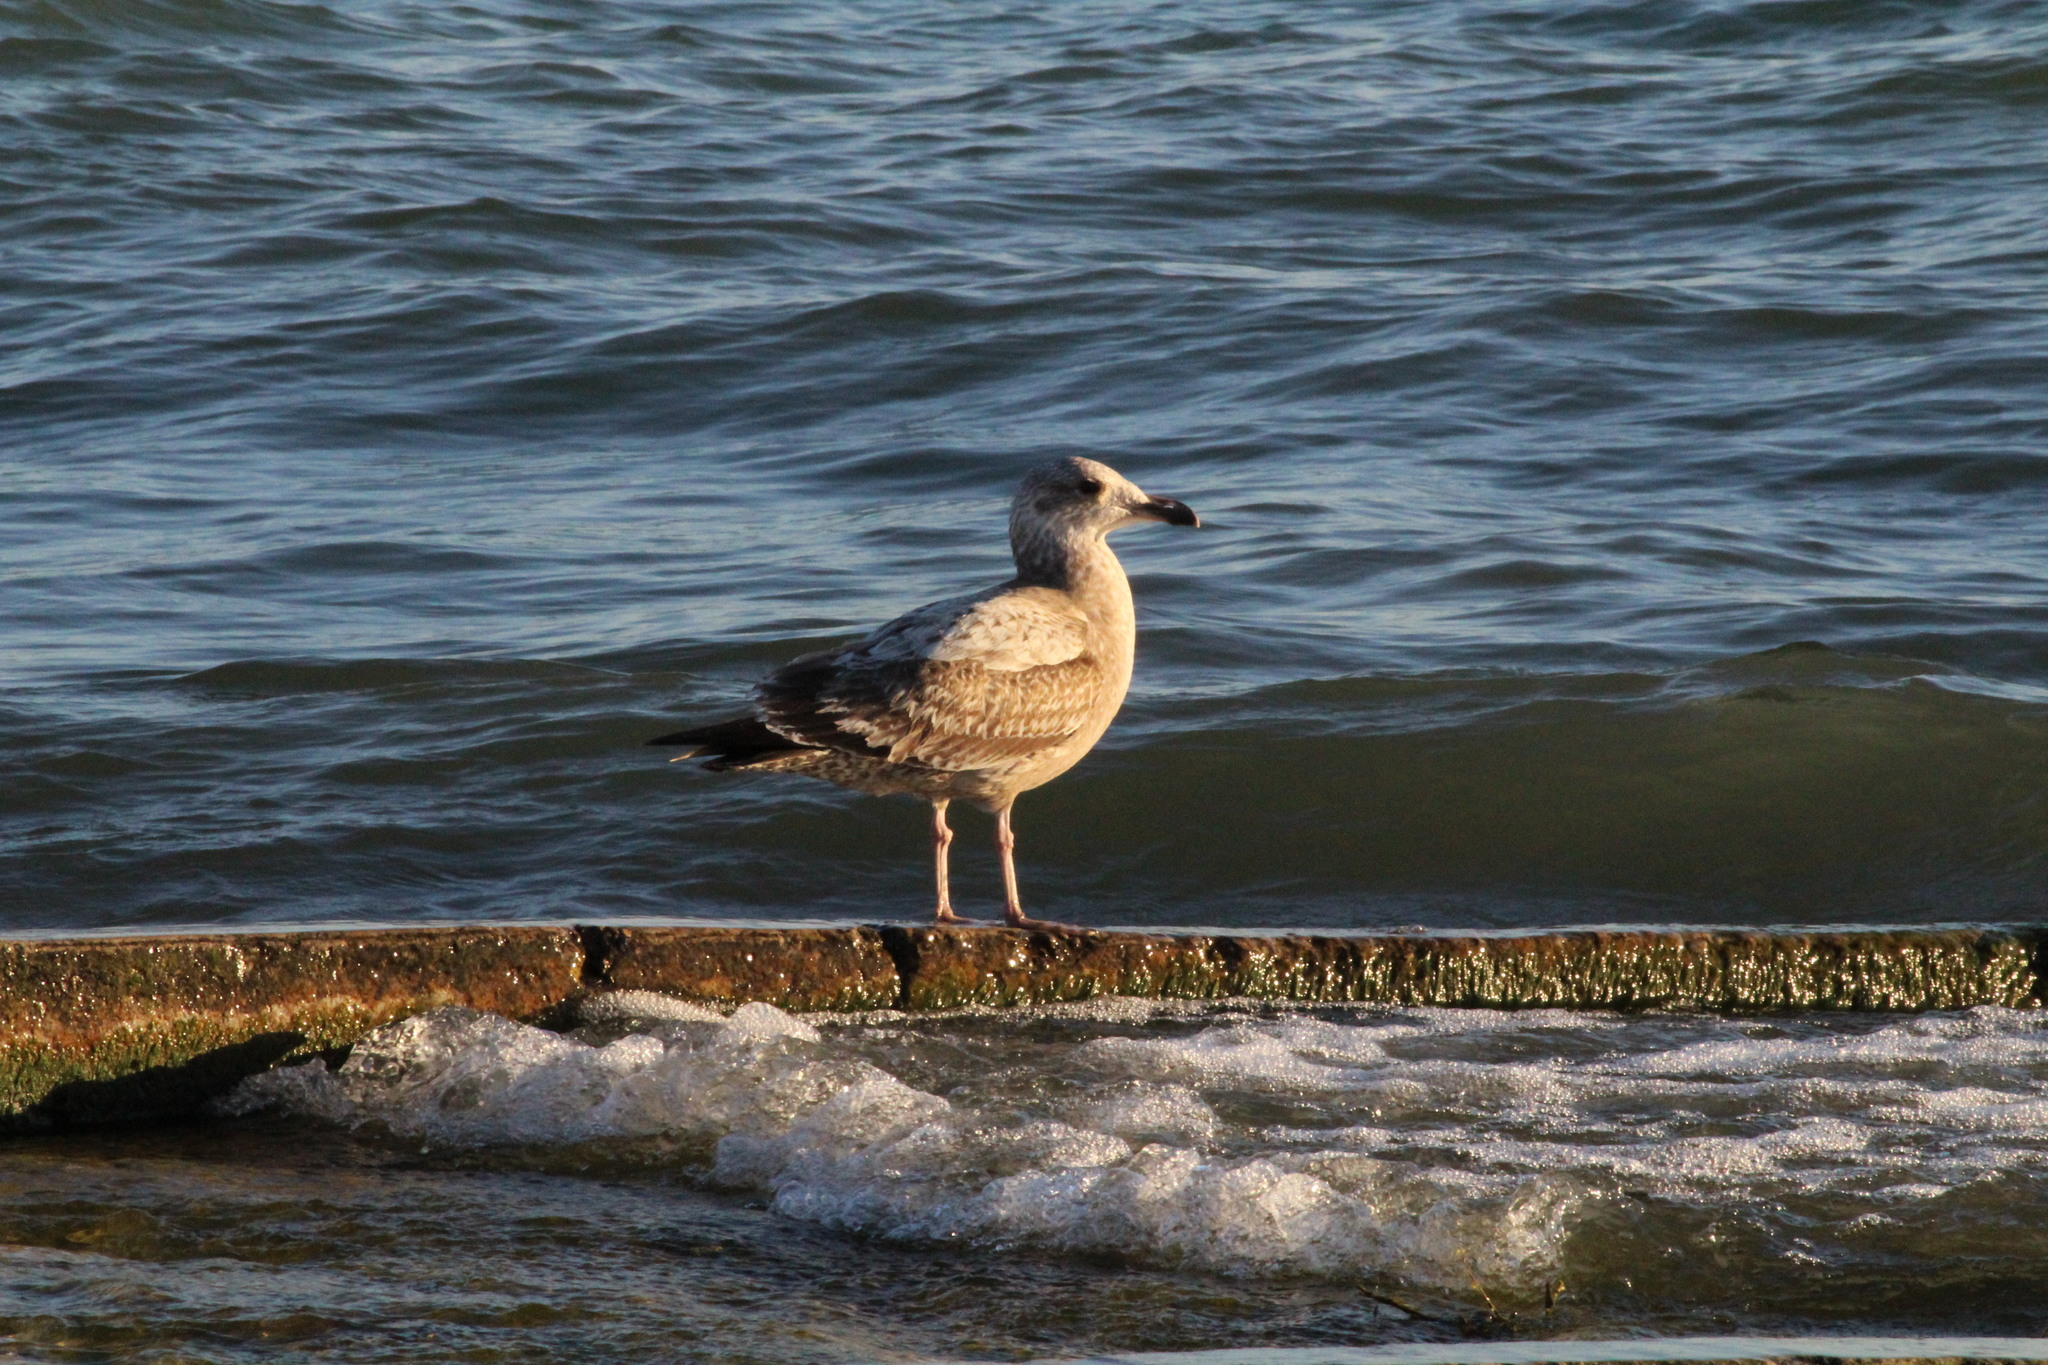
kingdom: Animalia
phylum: Chordata
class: Aves
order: Charadriiformes
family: Laridae
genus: Larus
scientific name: Larus argentatus
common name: Herring gull
